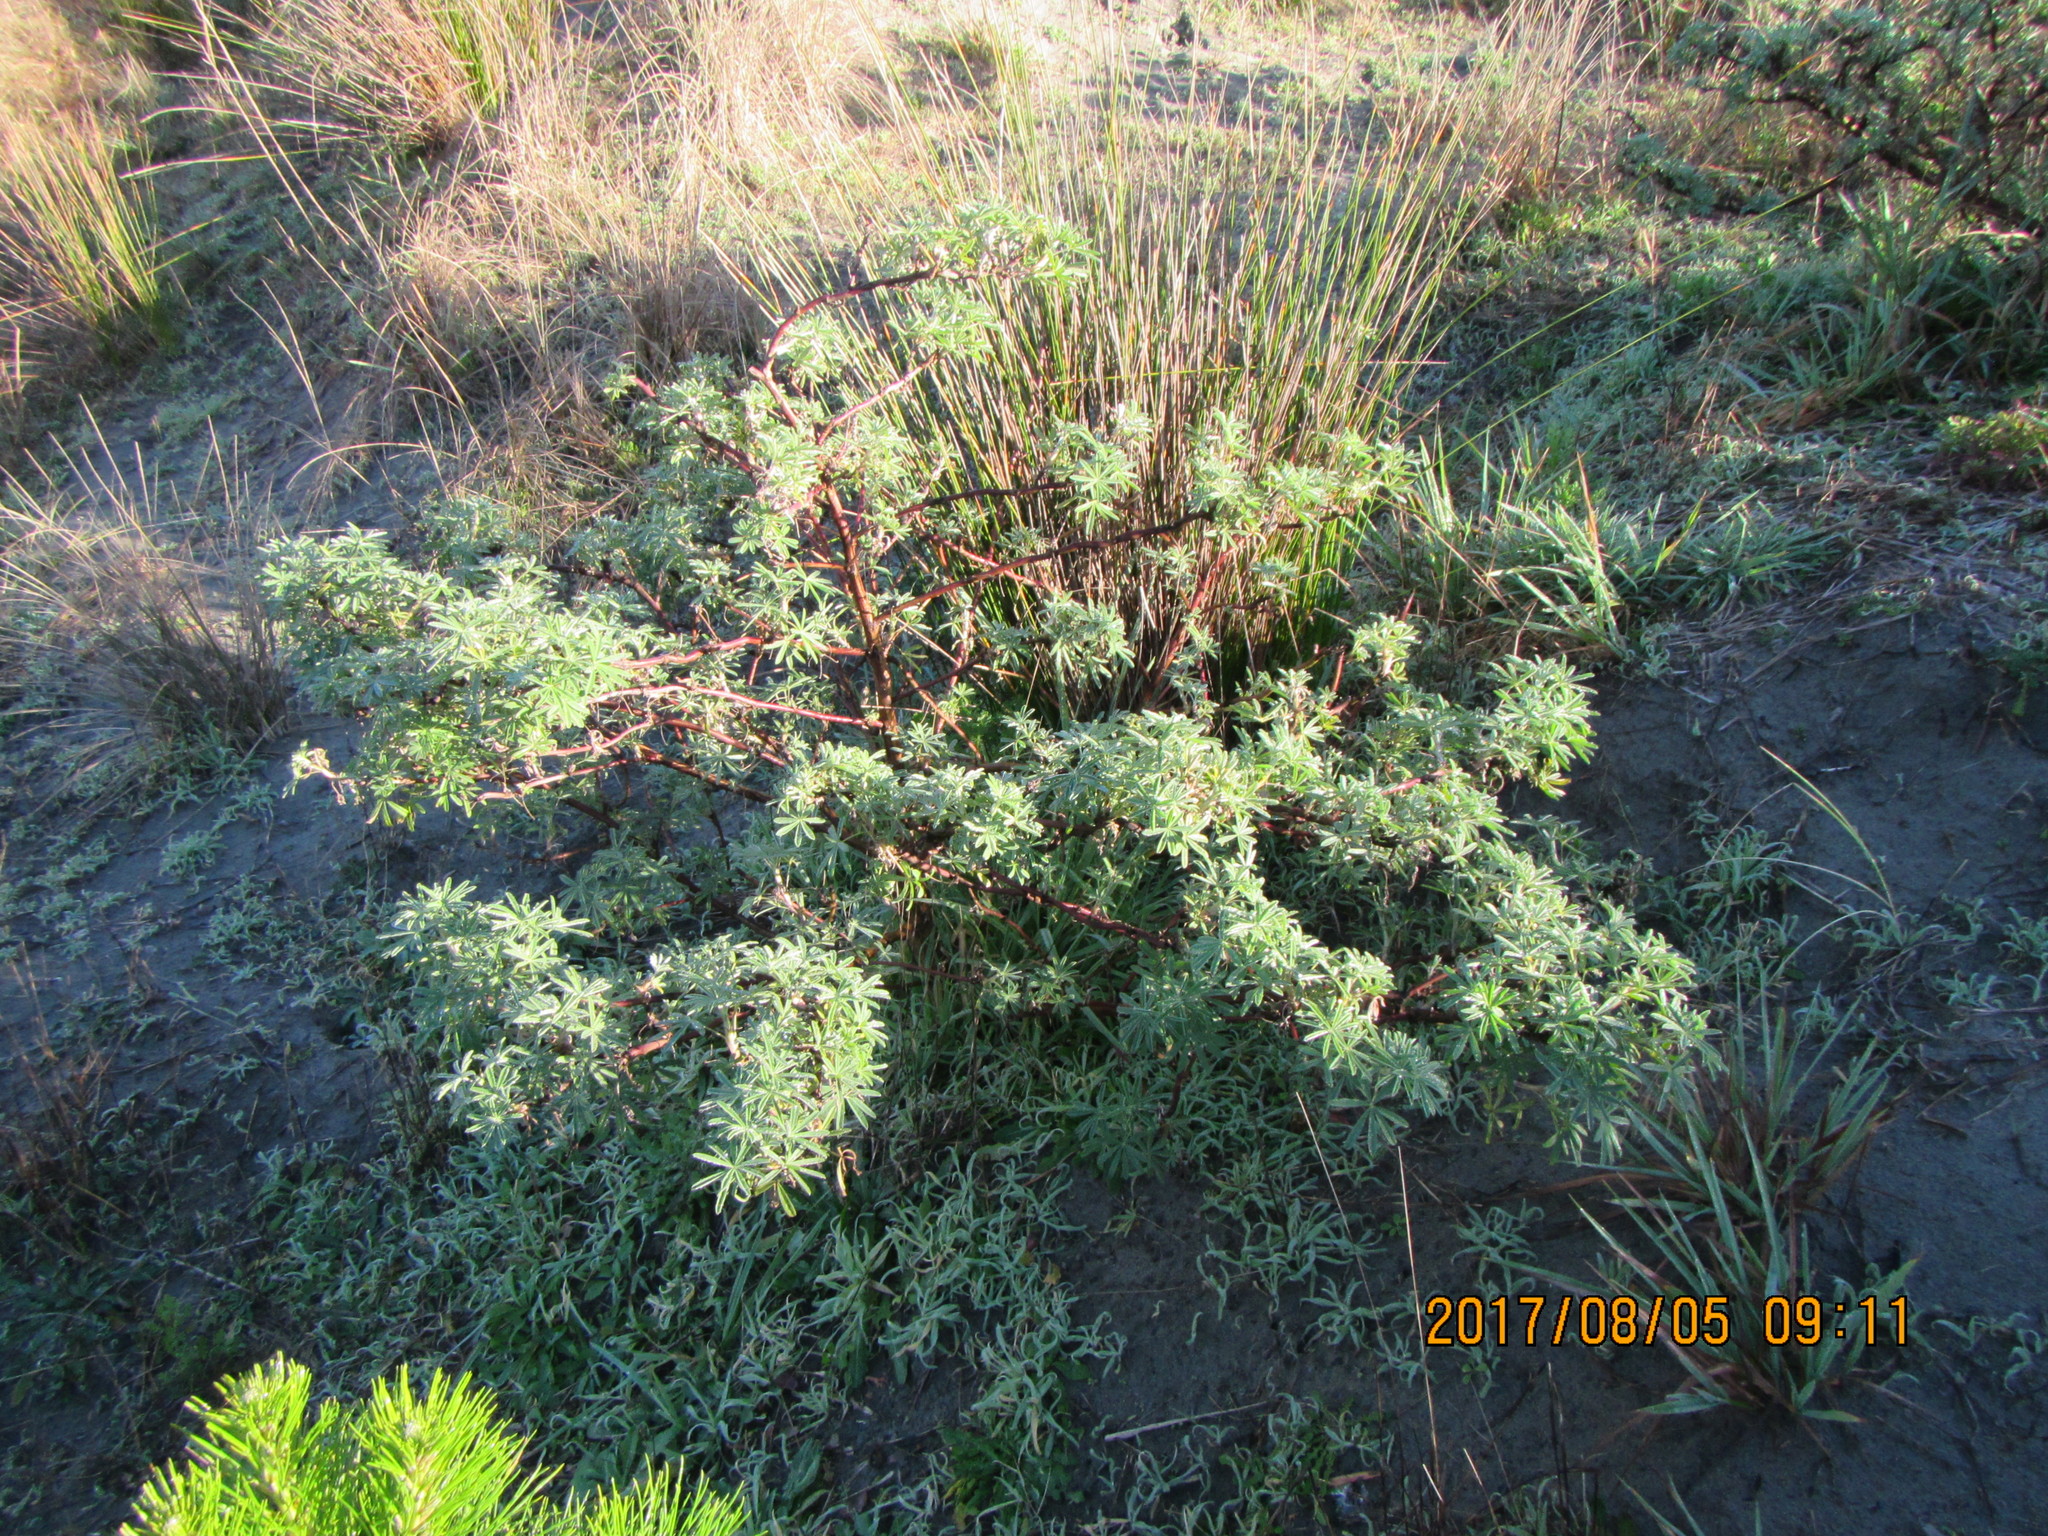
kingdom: Plantae
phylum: Tracheophyta
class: Magnoliopsida
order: Fabales
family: Fabaceae
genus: Lupinus
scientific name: Lupinus arboreus
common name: Yellow bush lupine
